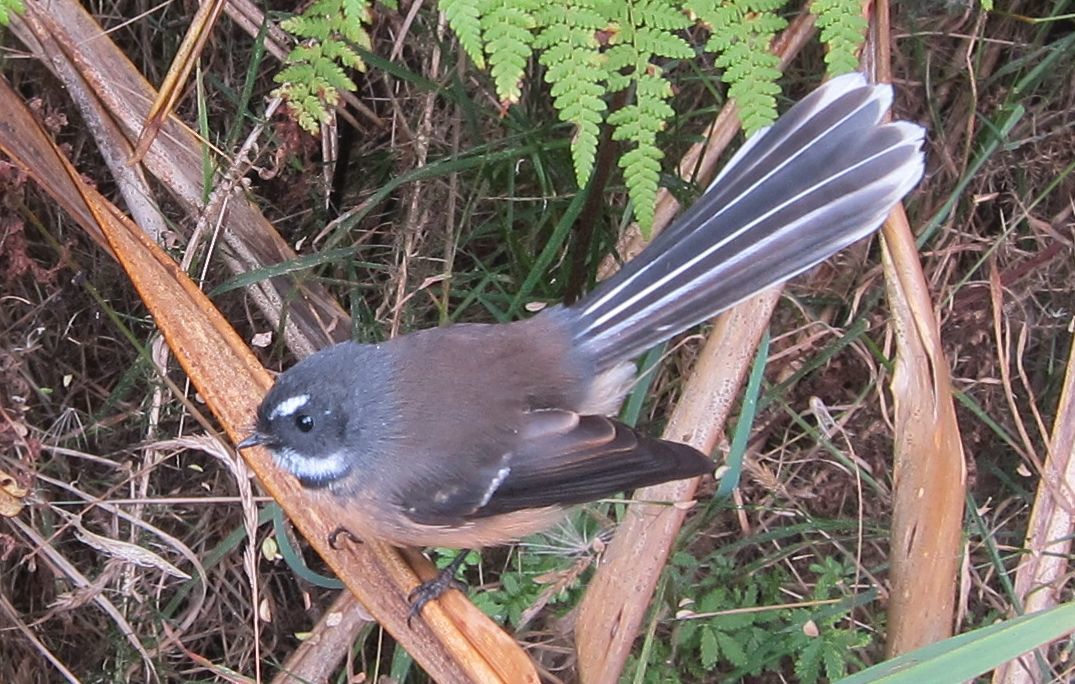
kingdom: Animalia
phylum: Chordata
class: Aves
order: Passeriformes
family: Rhipiduridae
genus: Rhipidura
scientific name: Rhipidura fuliginosa
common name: New zealand fantail
